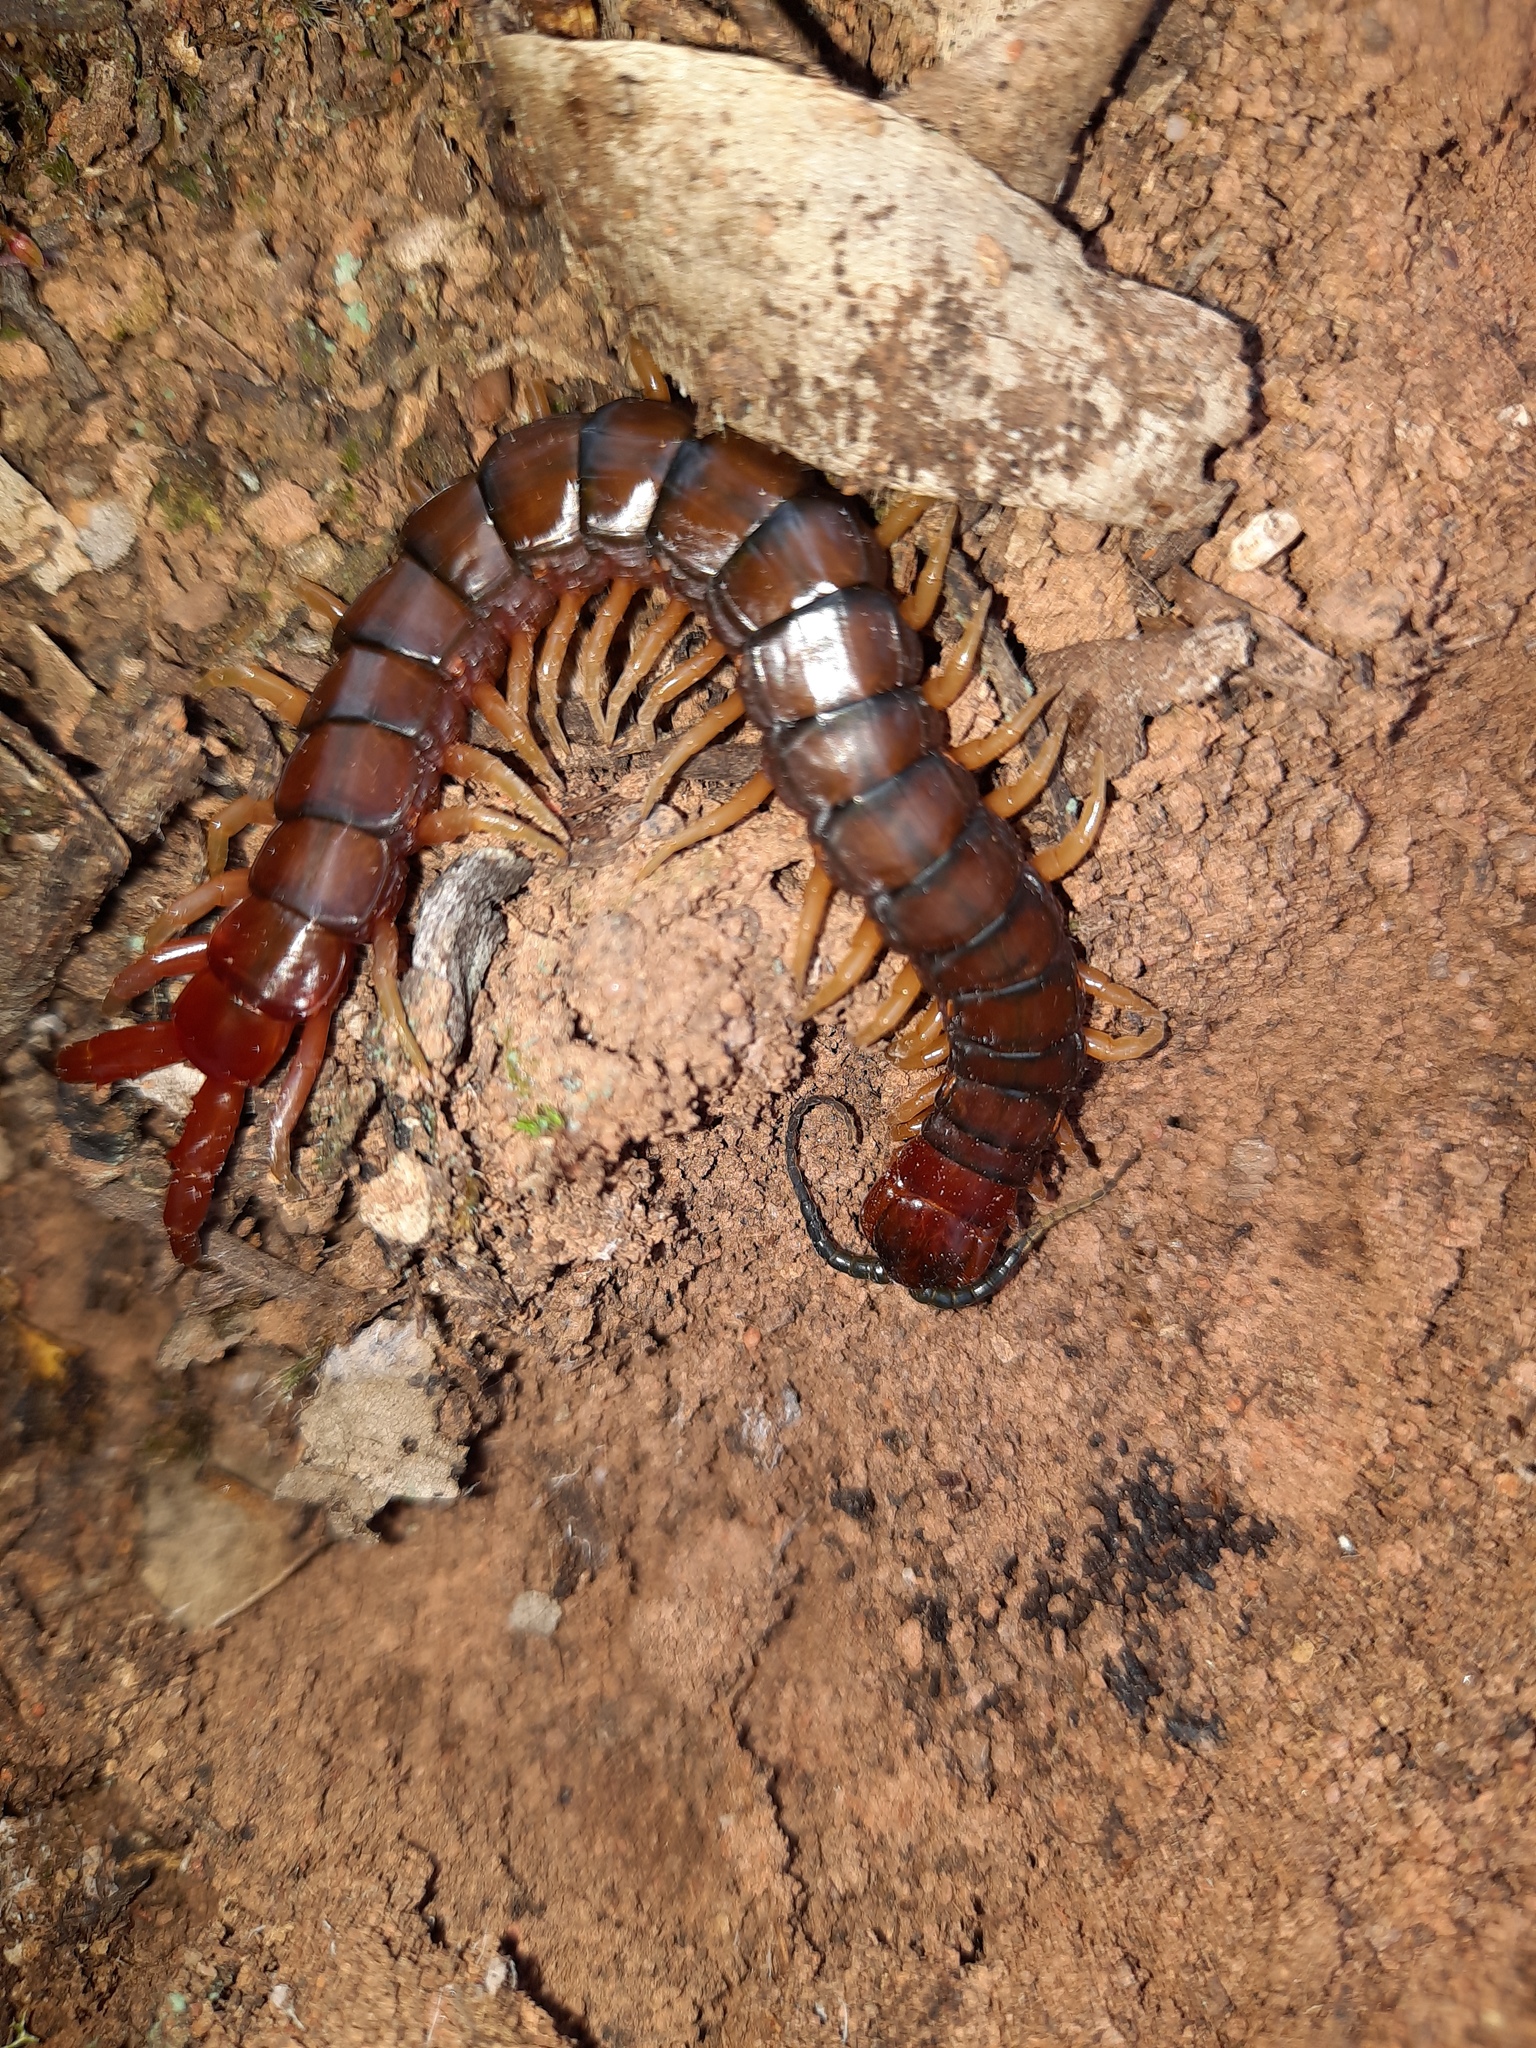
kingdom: Animalia
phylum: Arthropoda
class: Chilopoda
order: Scolopendromorpha
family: Scolopendridae
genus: Cormocephalus
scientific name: Cormocephalus aurantiipes
